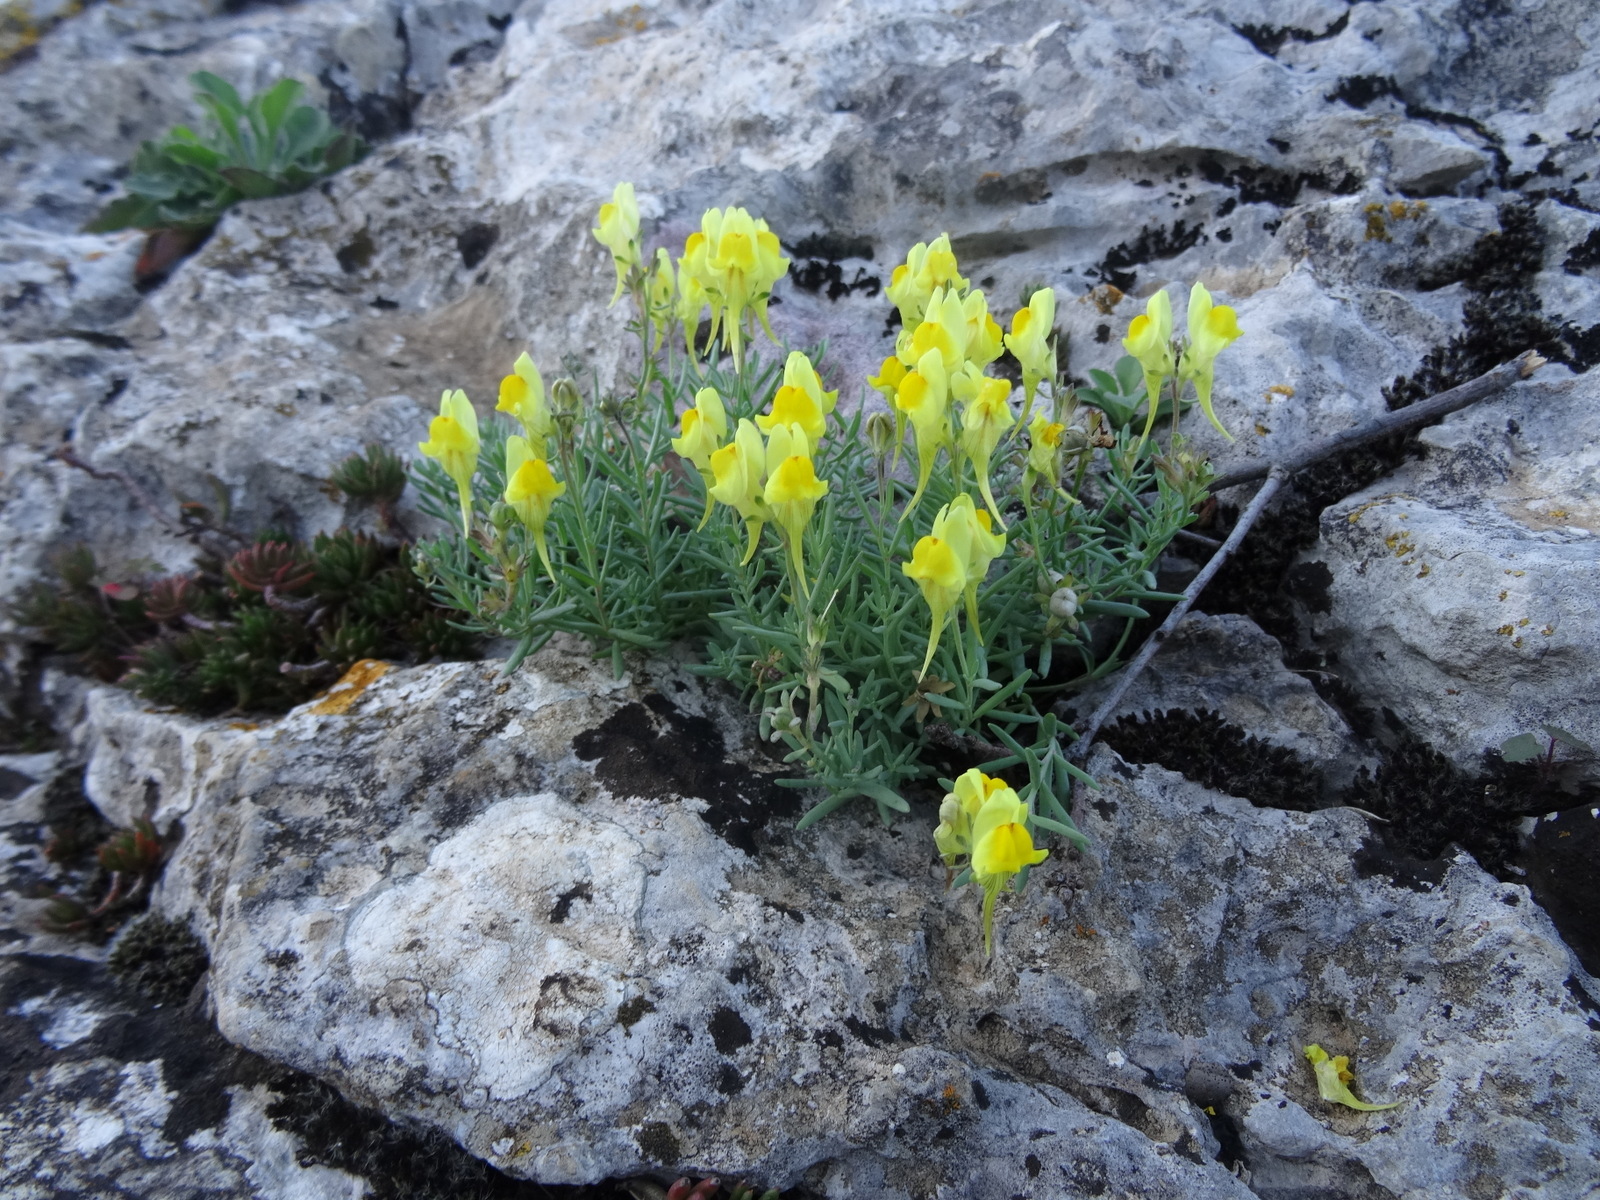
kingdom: Plantae
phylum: Tracheophyta
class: Magnoliopsida
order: Lamiales
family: Plantaginaceae
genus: Linaria
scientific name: Linaria supina
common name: Prostrate toadflax
